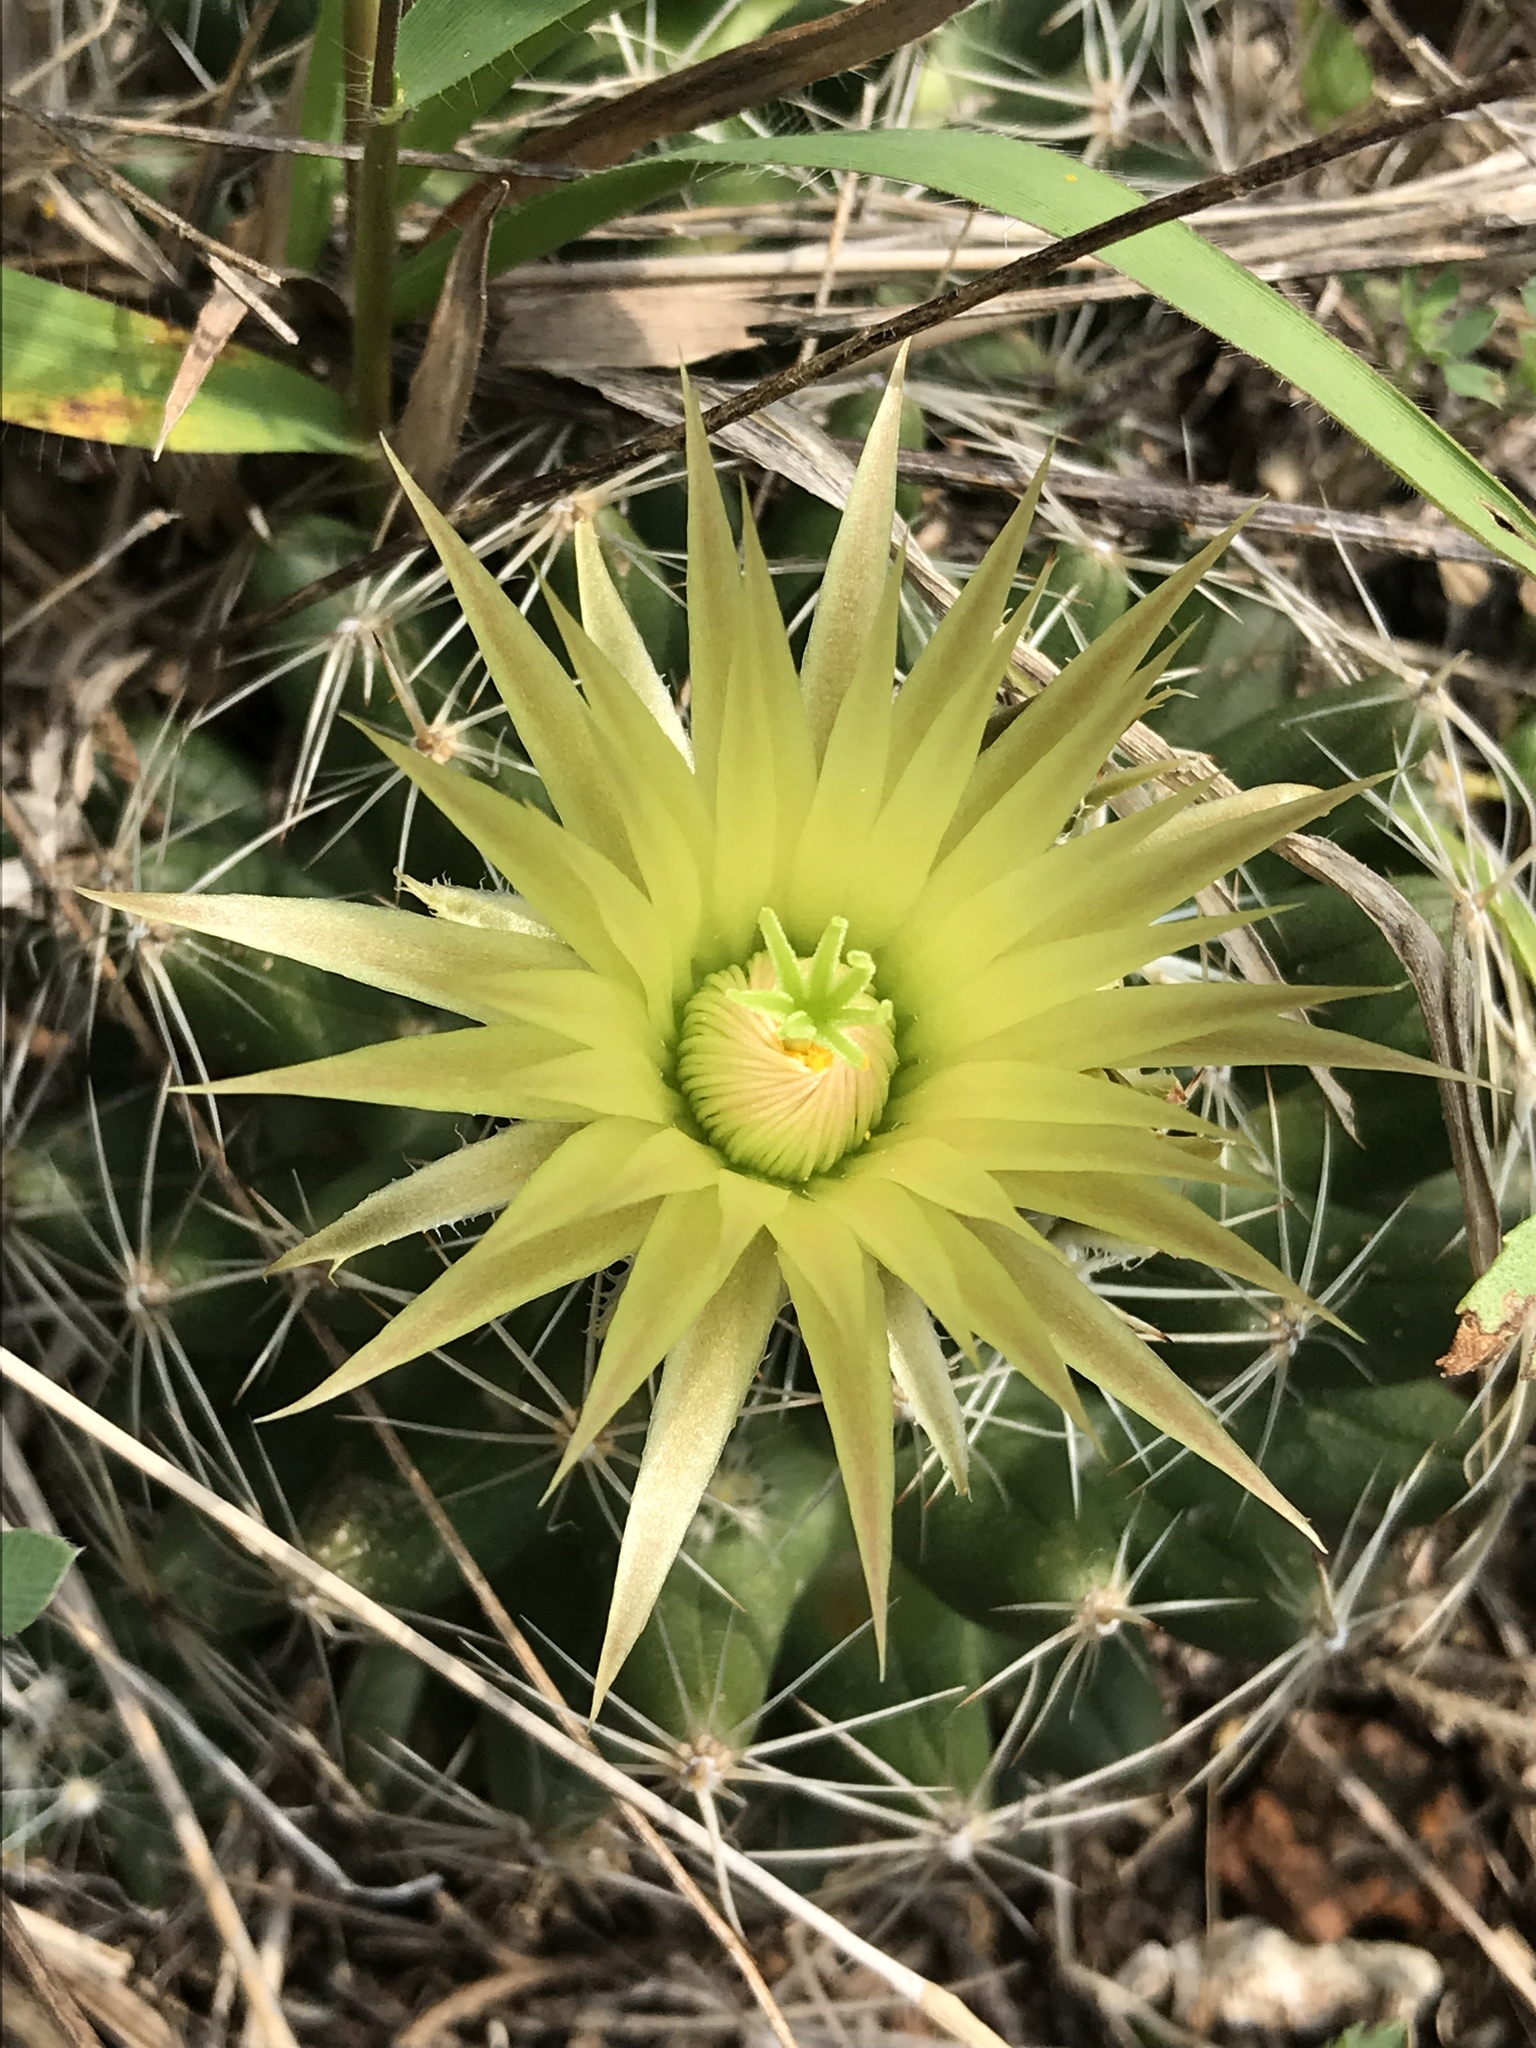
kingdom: Plantae
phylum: Tracheophyta
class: Magnoliopsida
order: Caryophyllales
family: Cactaceae
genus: Pelecyphora
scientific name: Pelecyphora missouriensis
